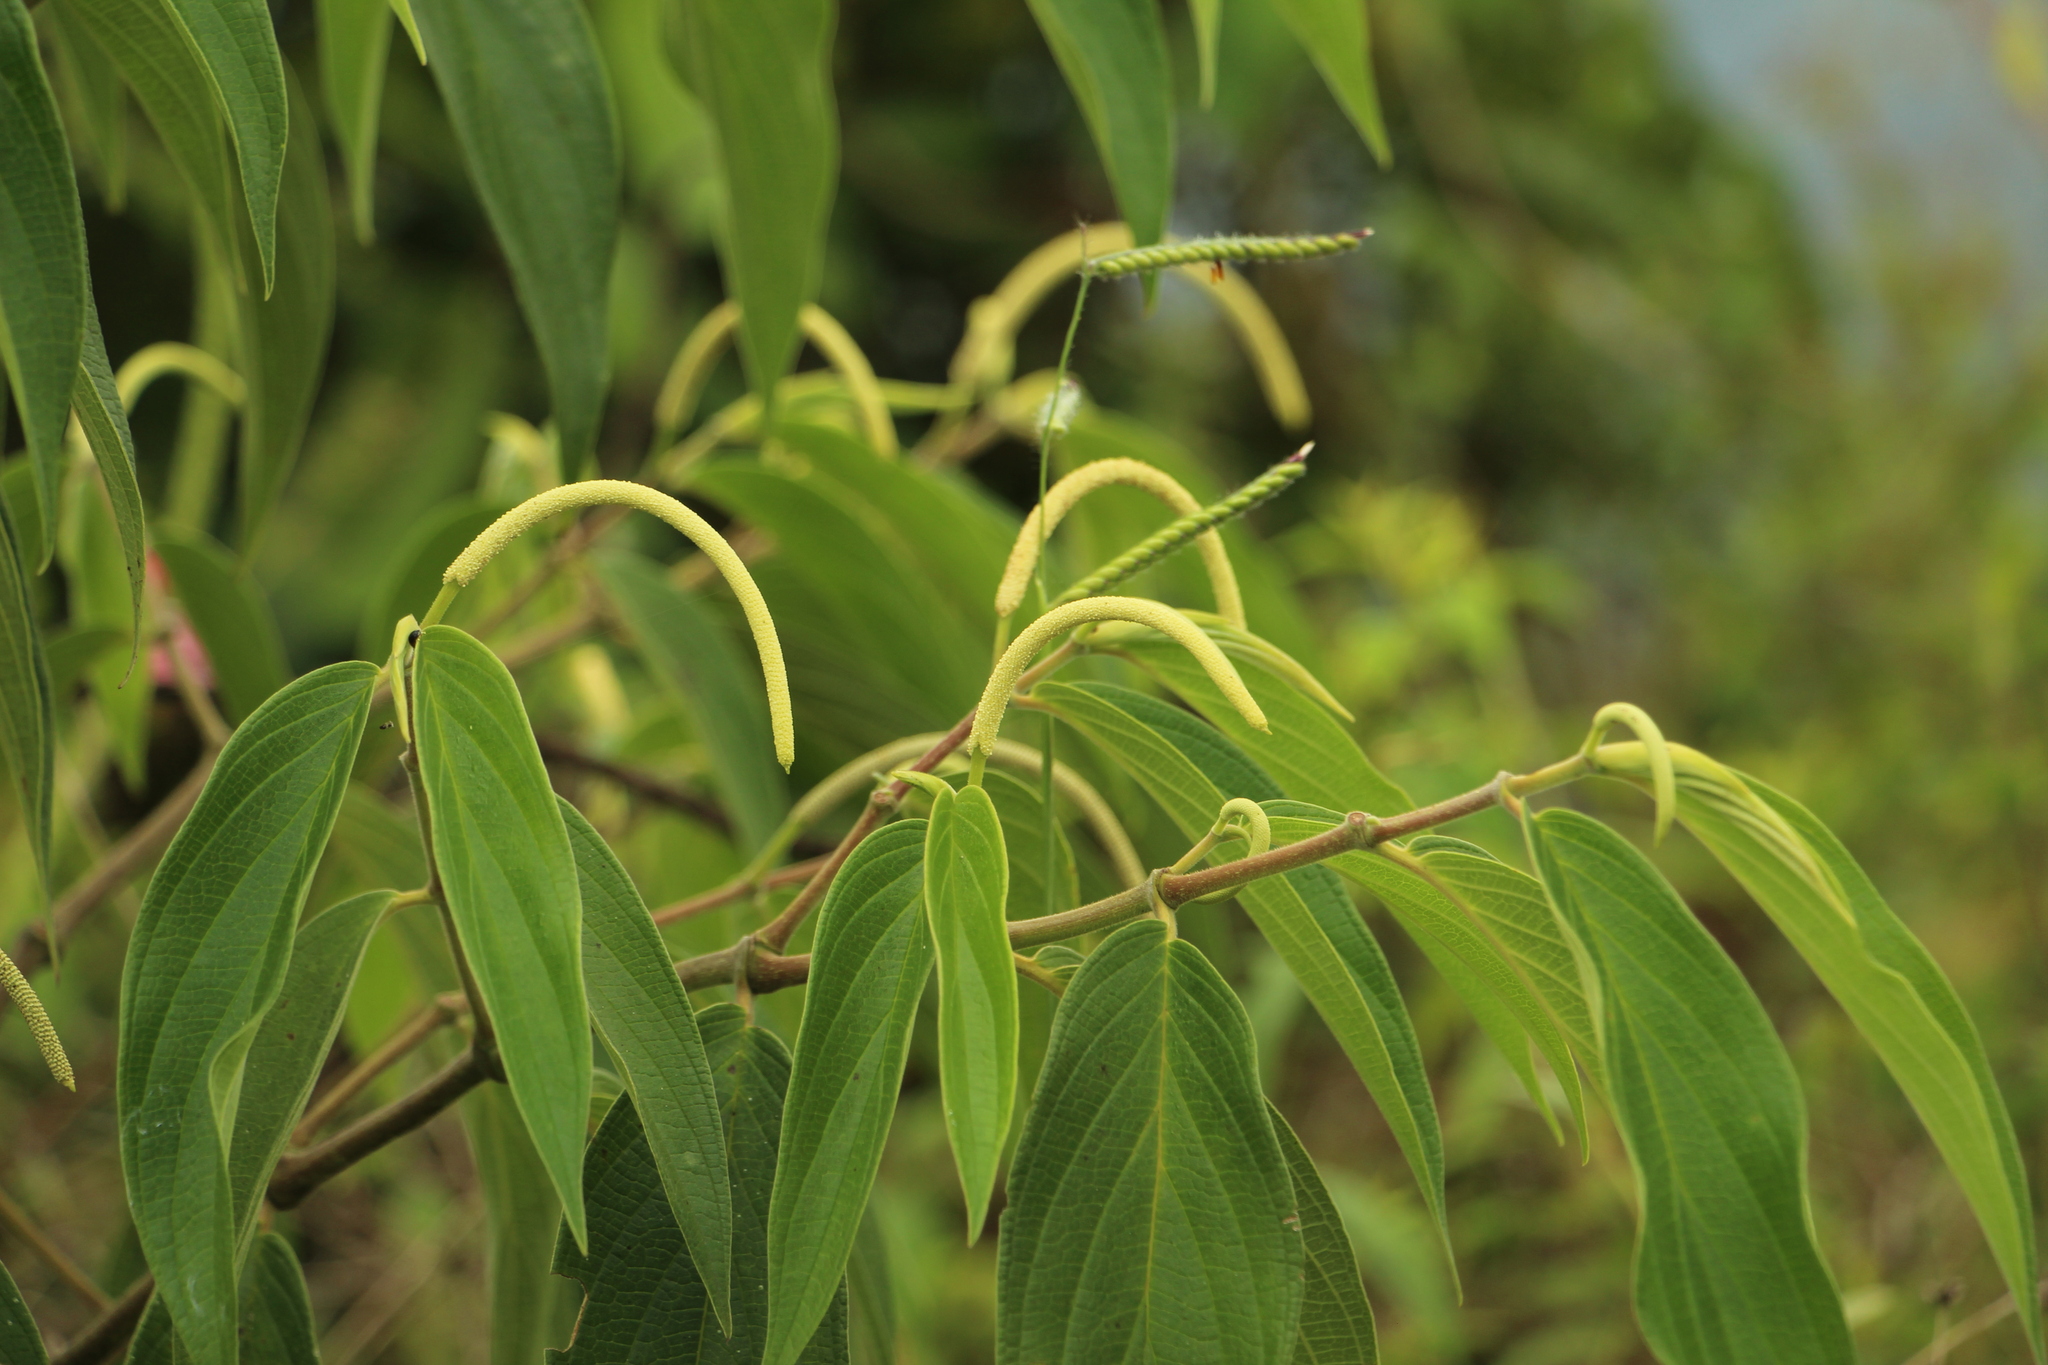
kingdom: Plantae
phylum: Tracheophyta
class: Magnoliopsida
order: Piperales
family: Piperaceae
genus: Piper
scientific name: Piper aduncum
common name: Spiked pepper
